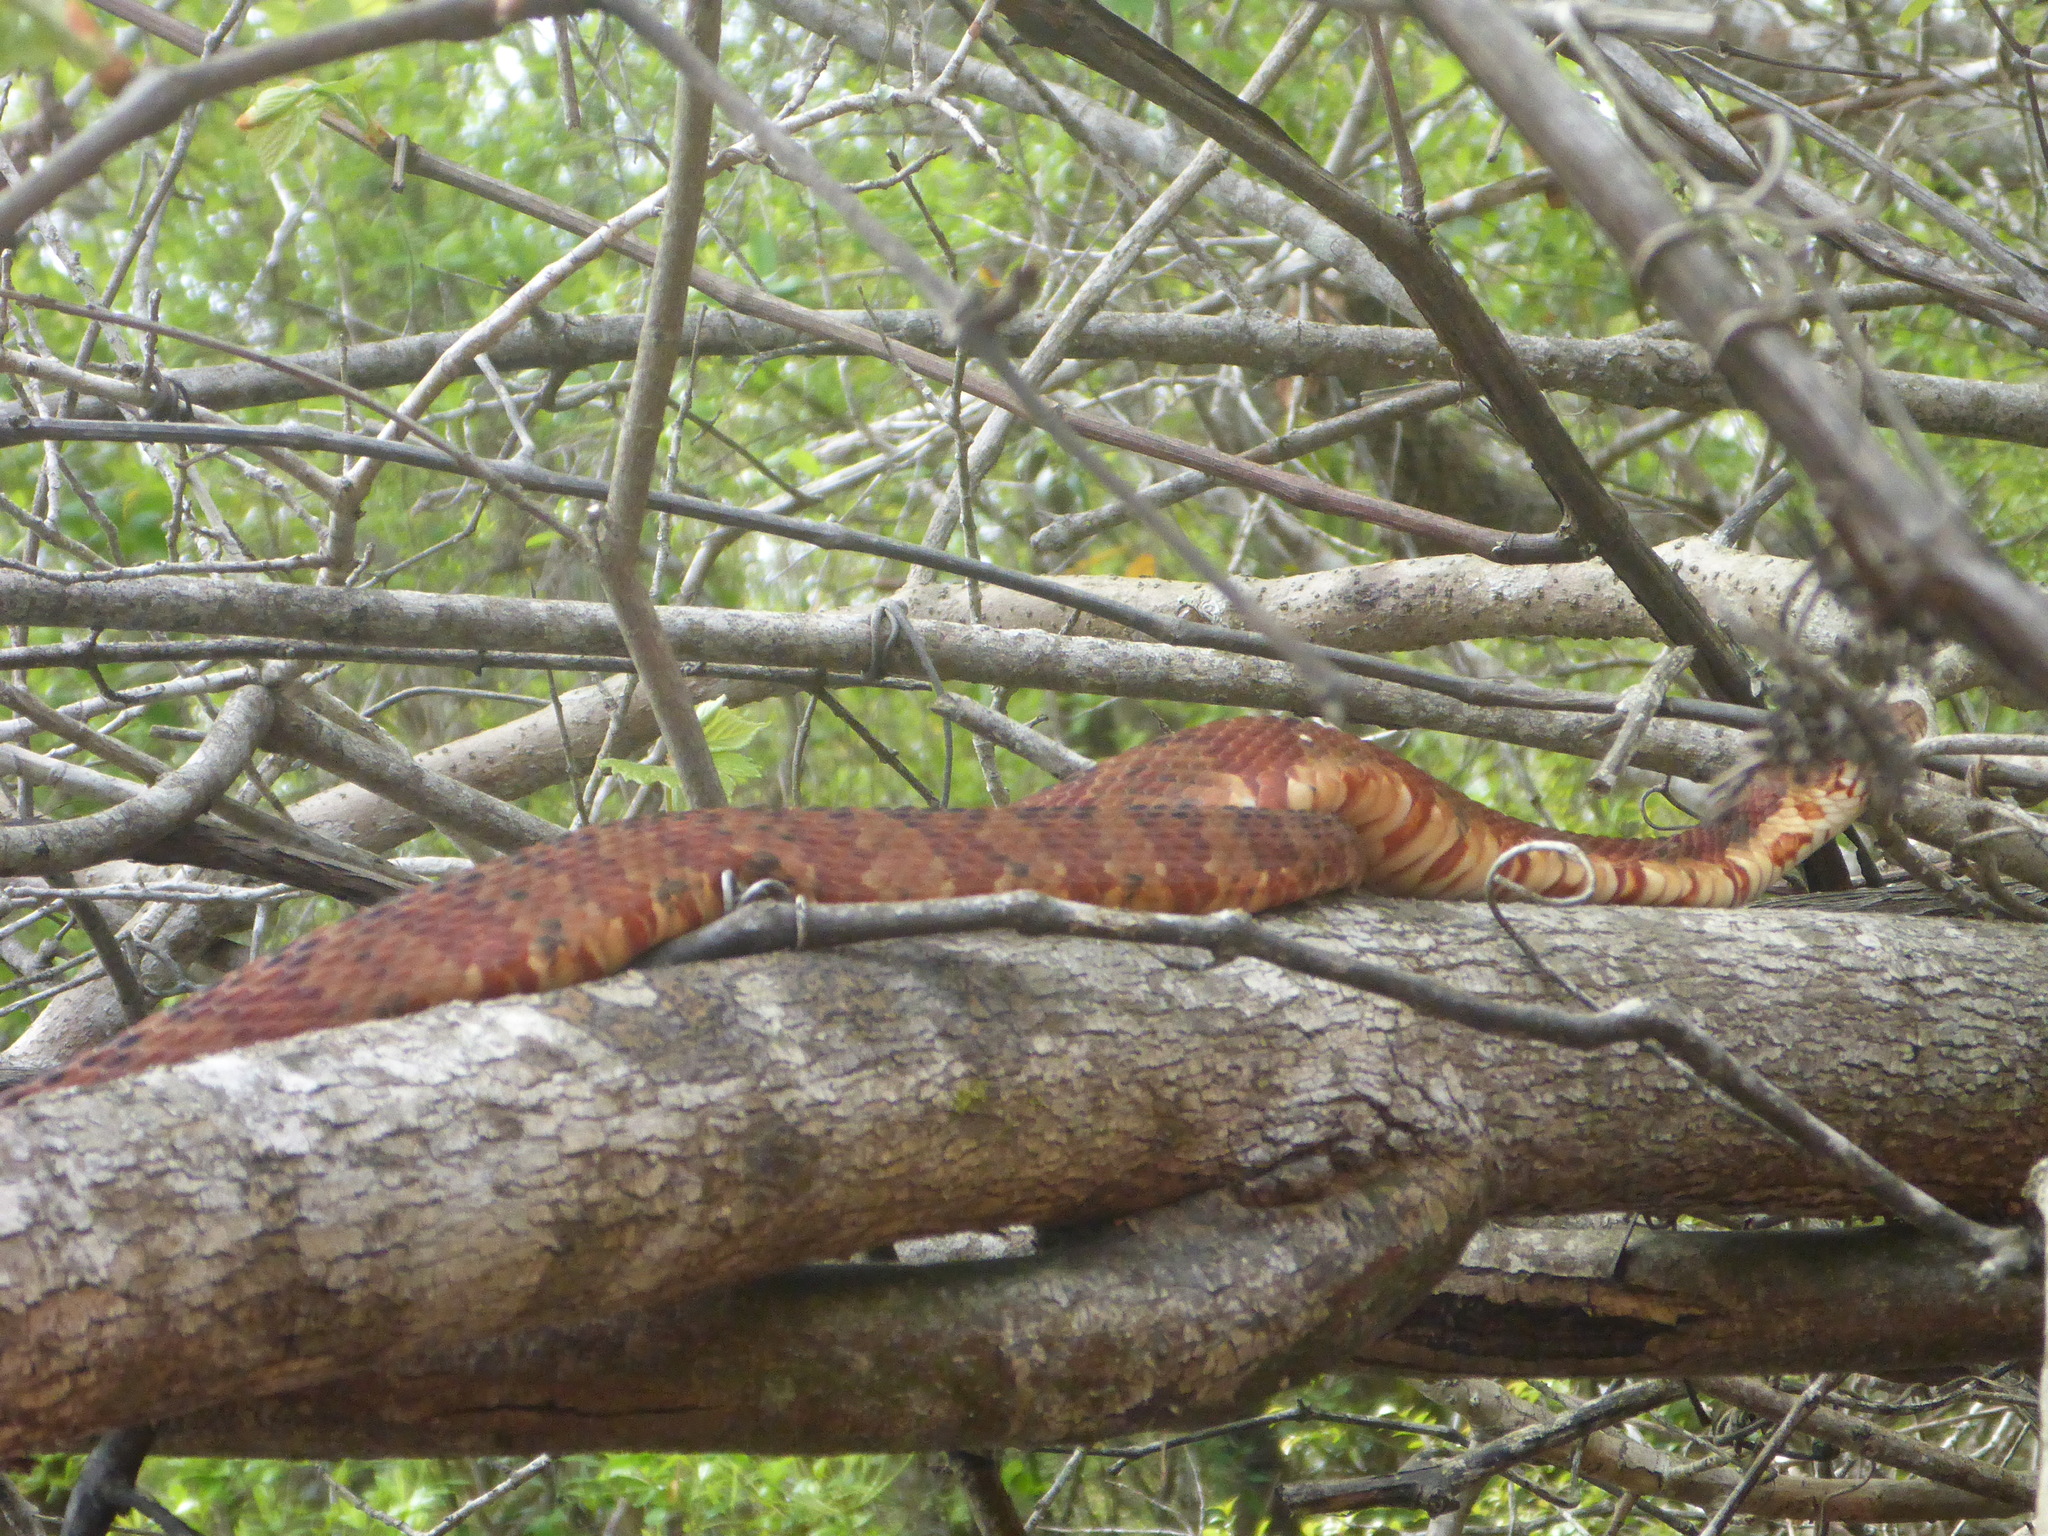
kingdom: Animalia
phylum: Chordata
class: Squamata
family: Colubridae
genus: Nerodia
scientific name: Nerodia fasciata
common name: Southern water snake
